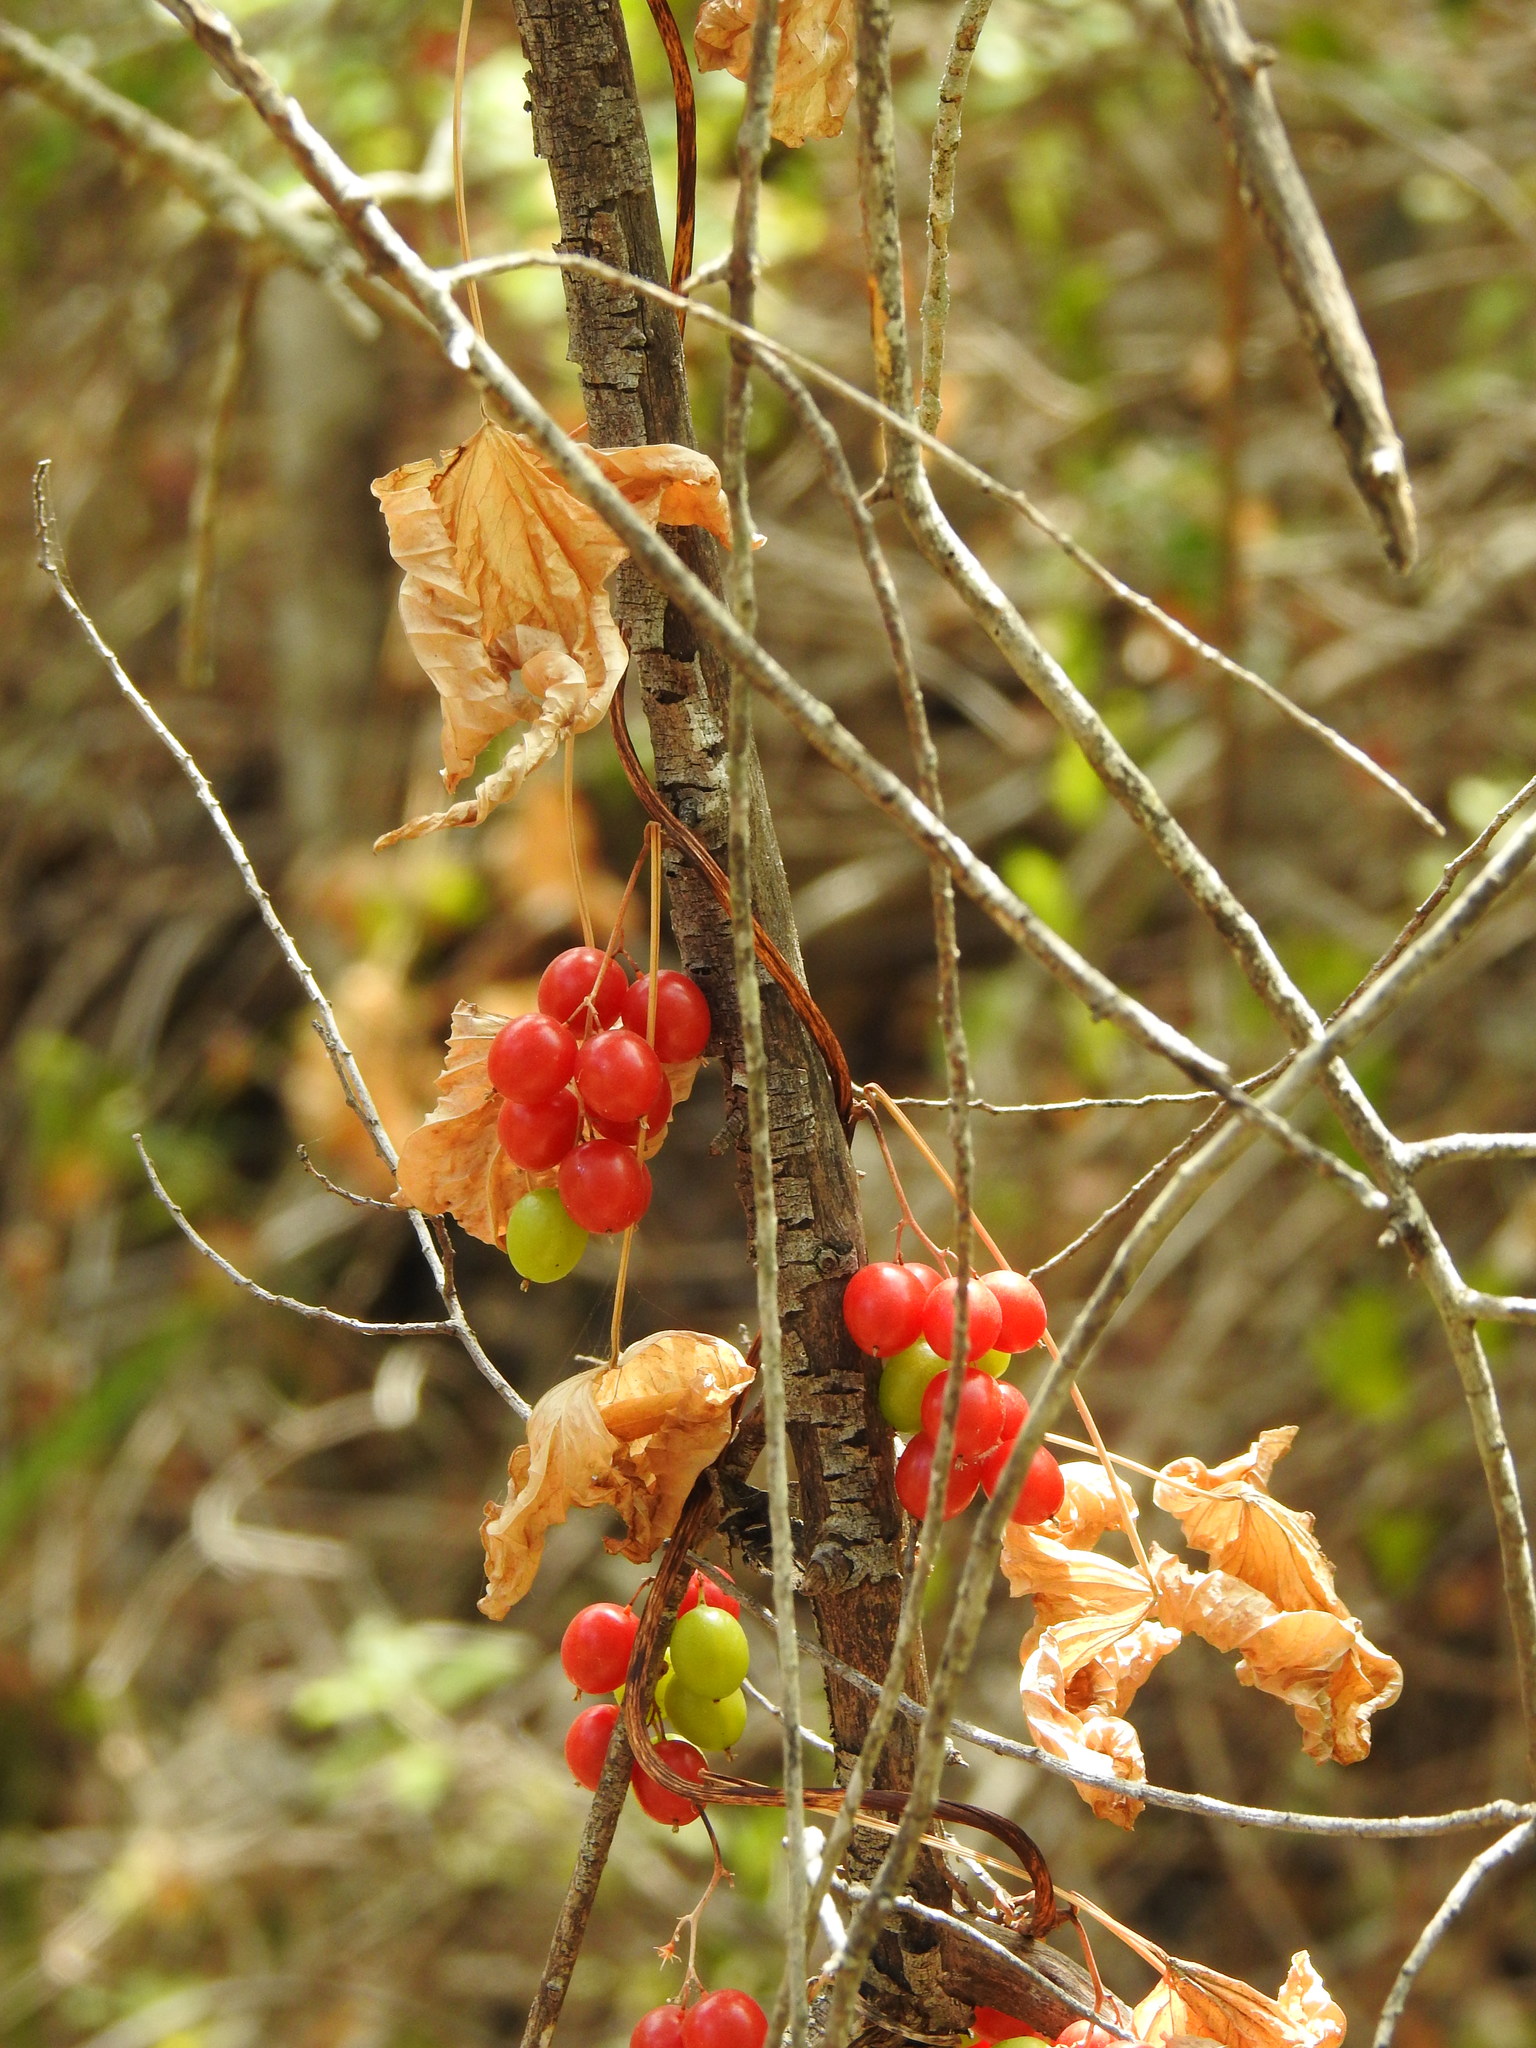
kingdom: Plantae
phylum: Tracheophyta
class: Liliopsida
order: Dioscoreales
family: Dioscoreaceae
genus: Dioscorea
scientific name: Dioscorea communis
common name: Black-bindweed
